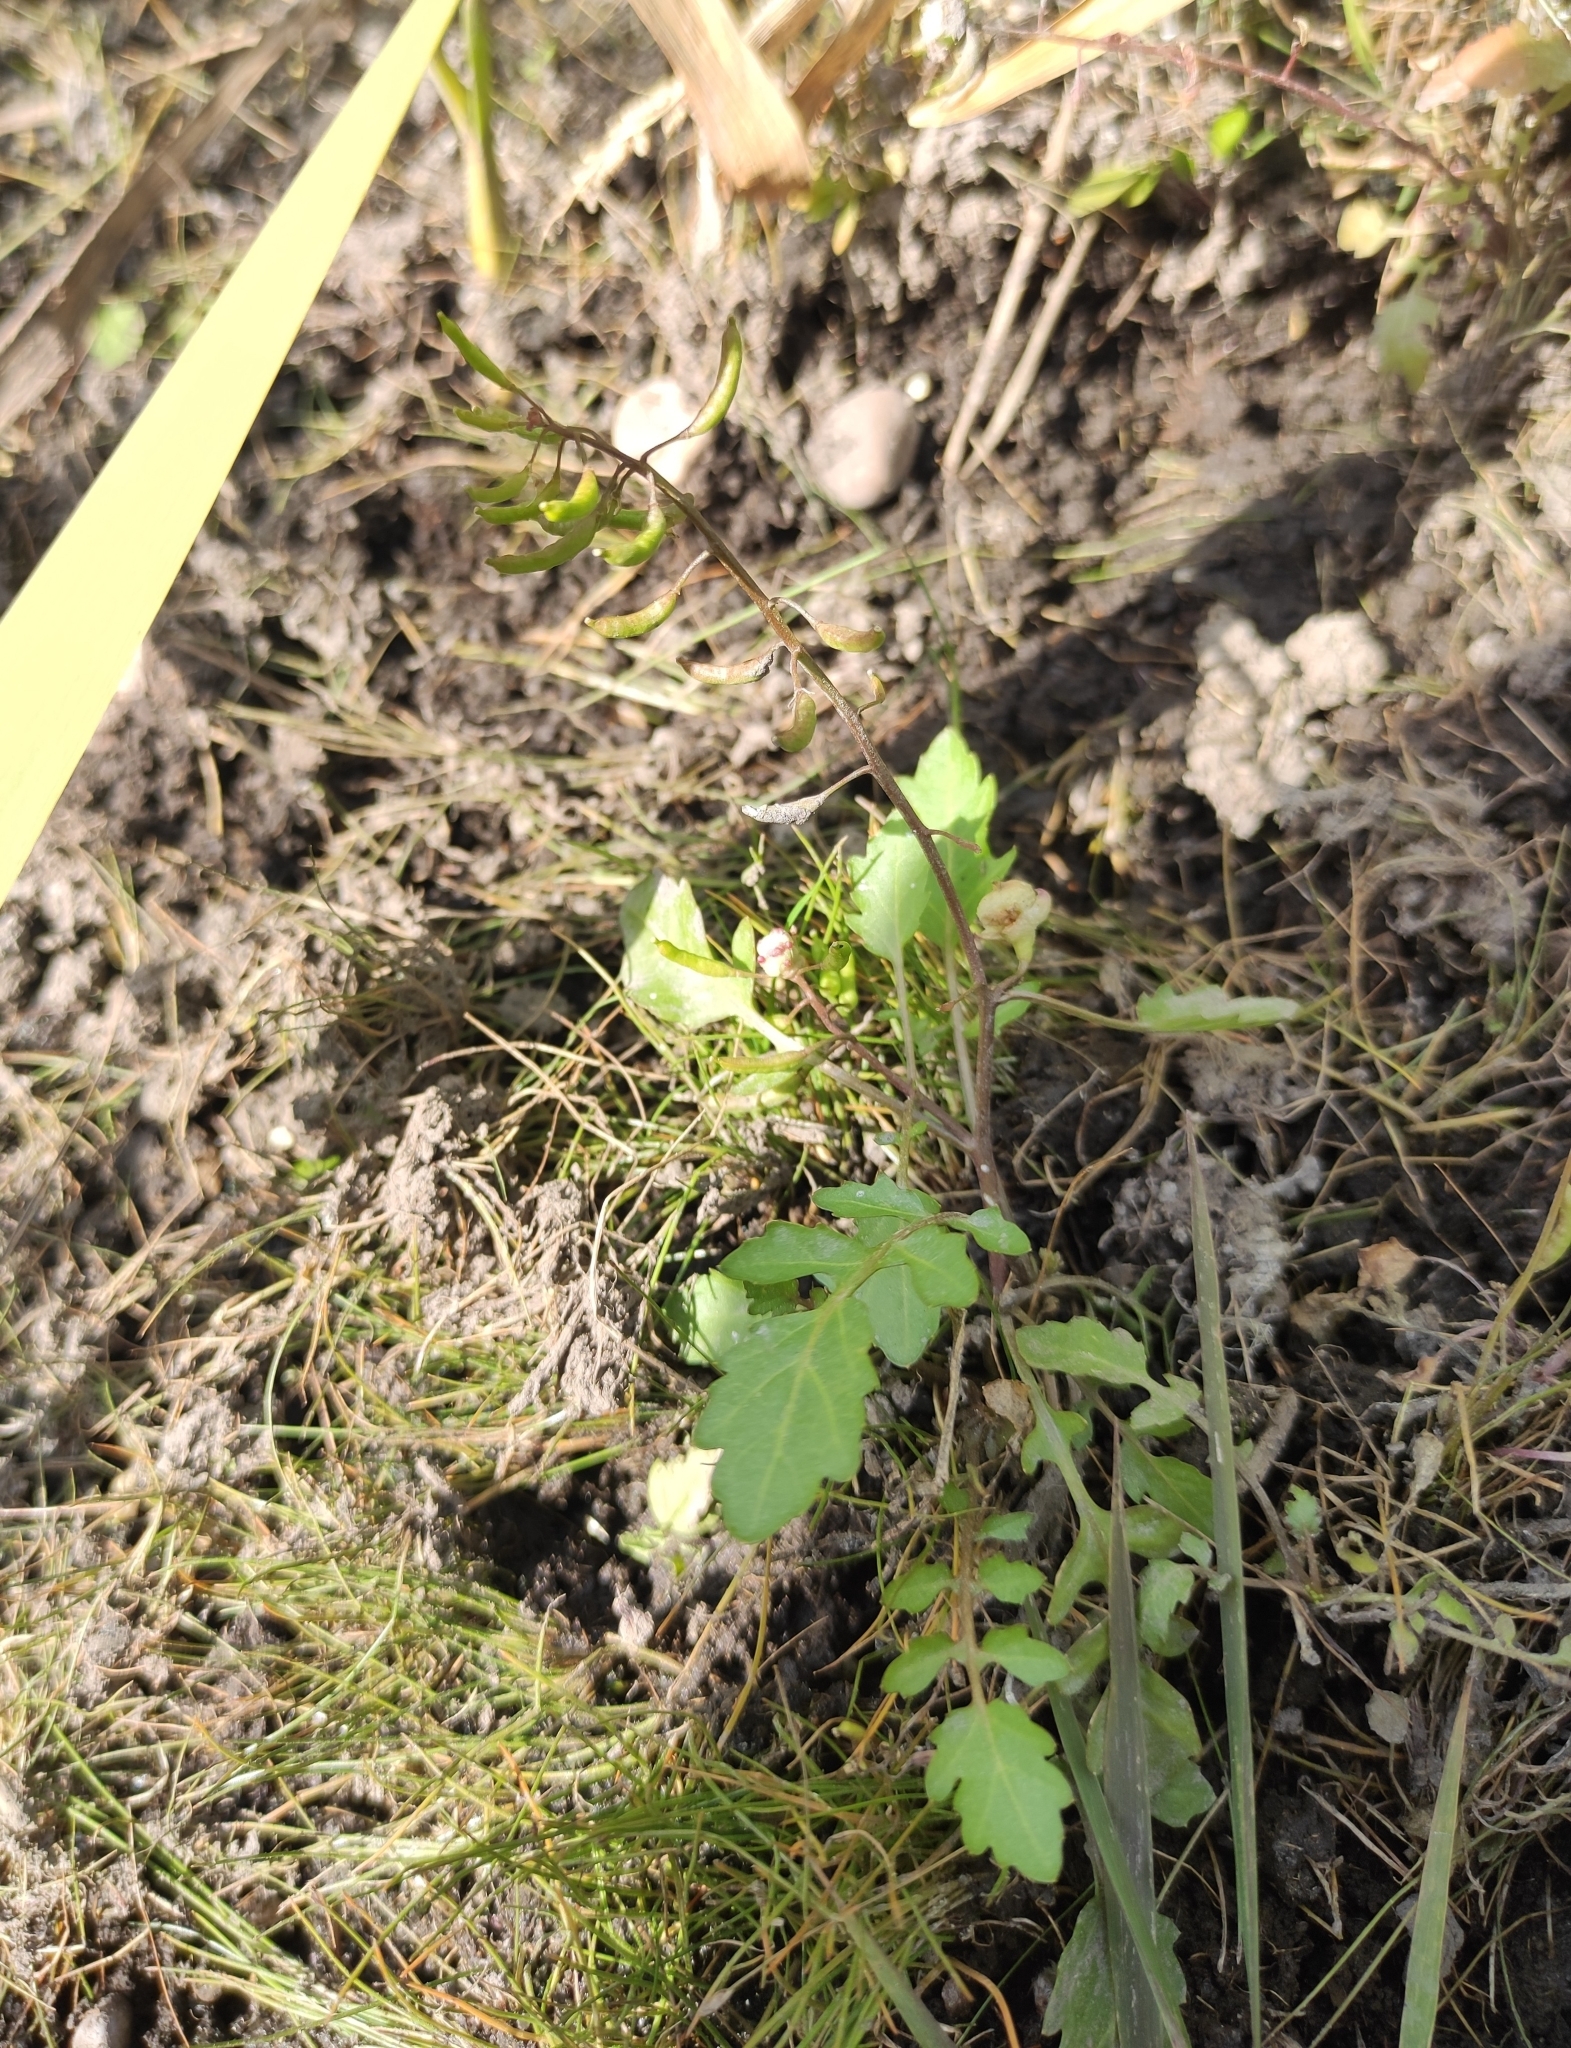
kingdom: Plantae
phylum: Tracheophyta
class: Magnoliopsida
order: Brassicales
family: Brassicaceae
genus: Rorippa
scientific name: Rorippa palustris
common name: Marsh yellow-cress
